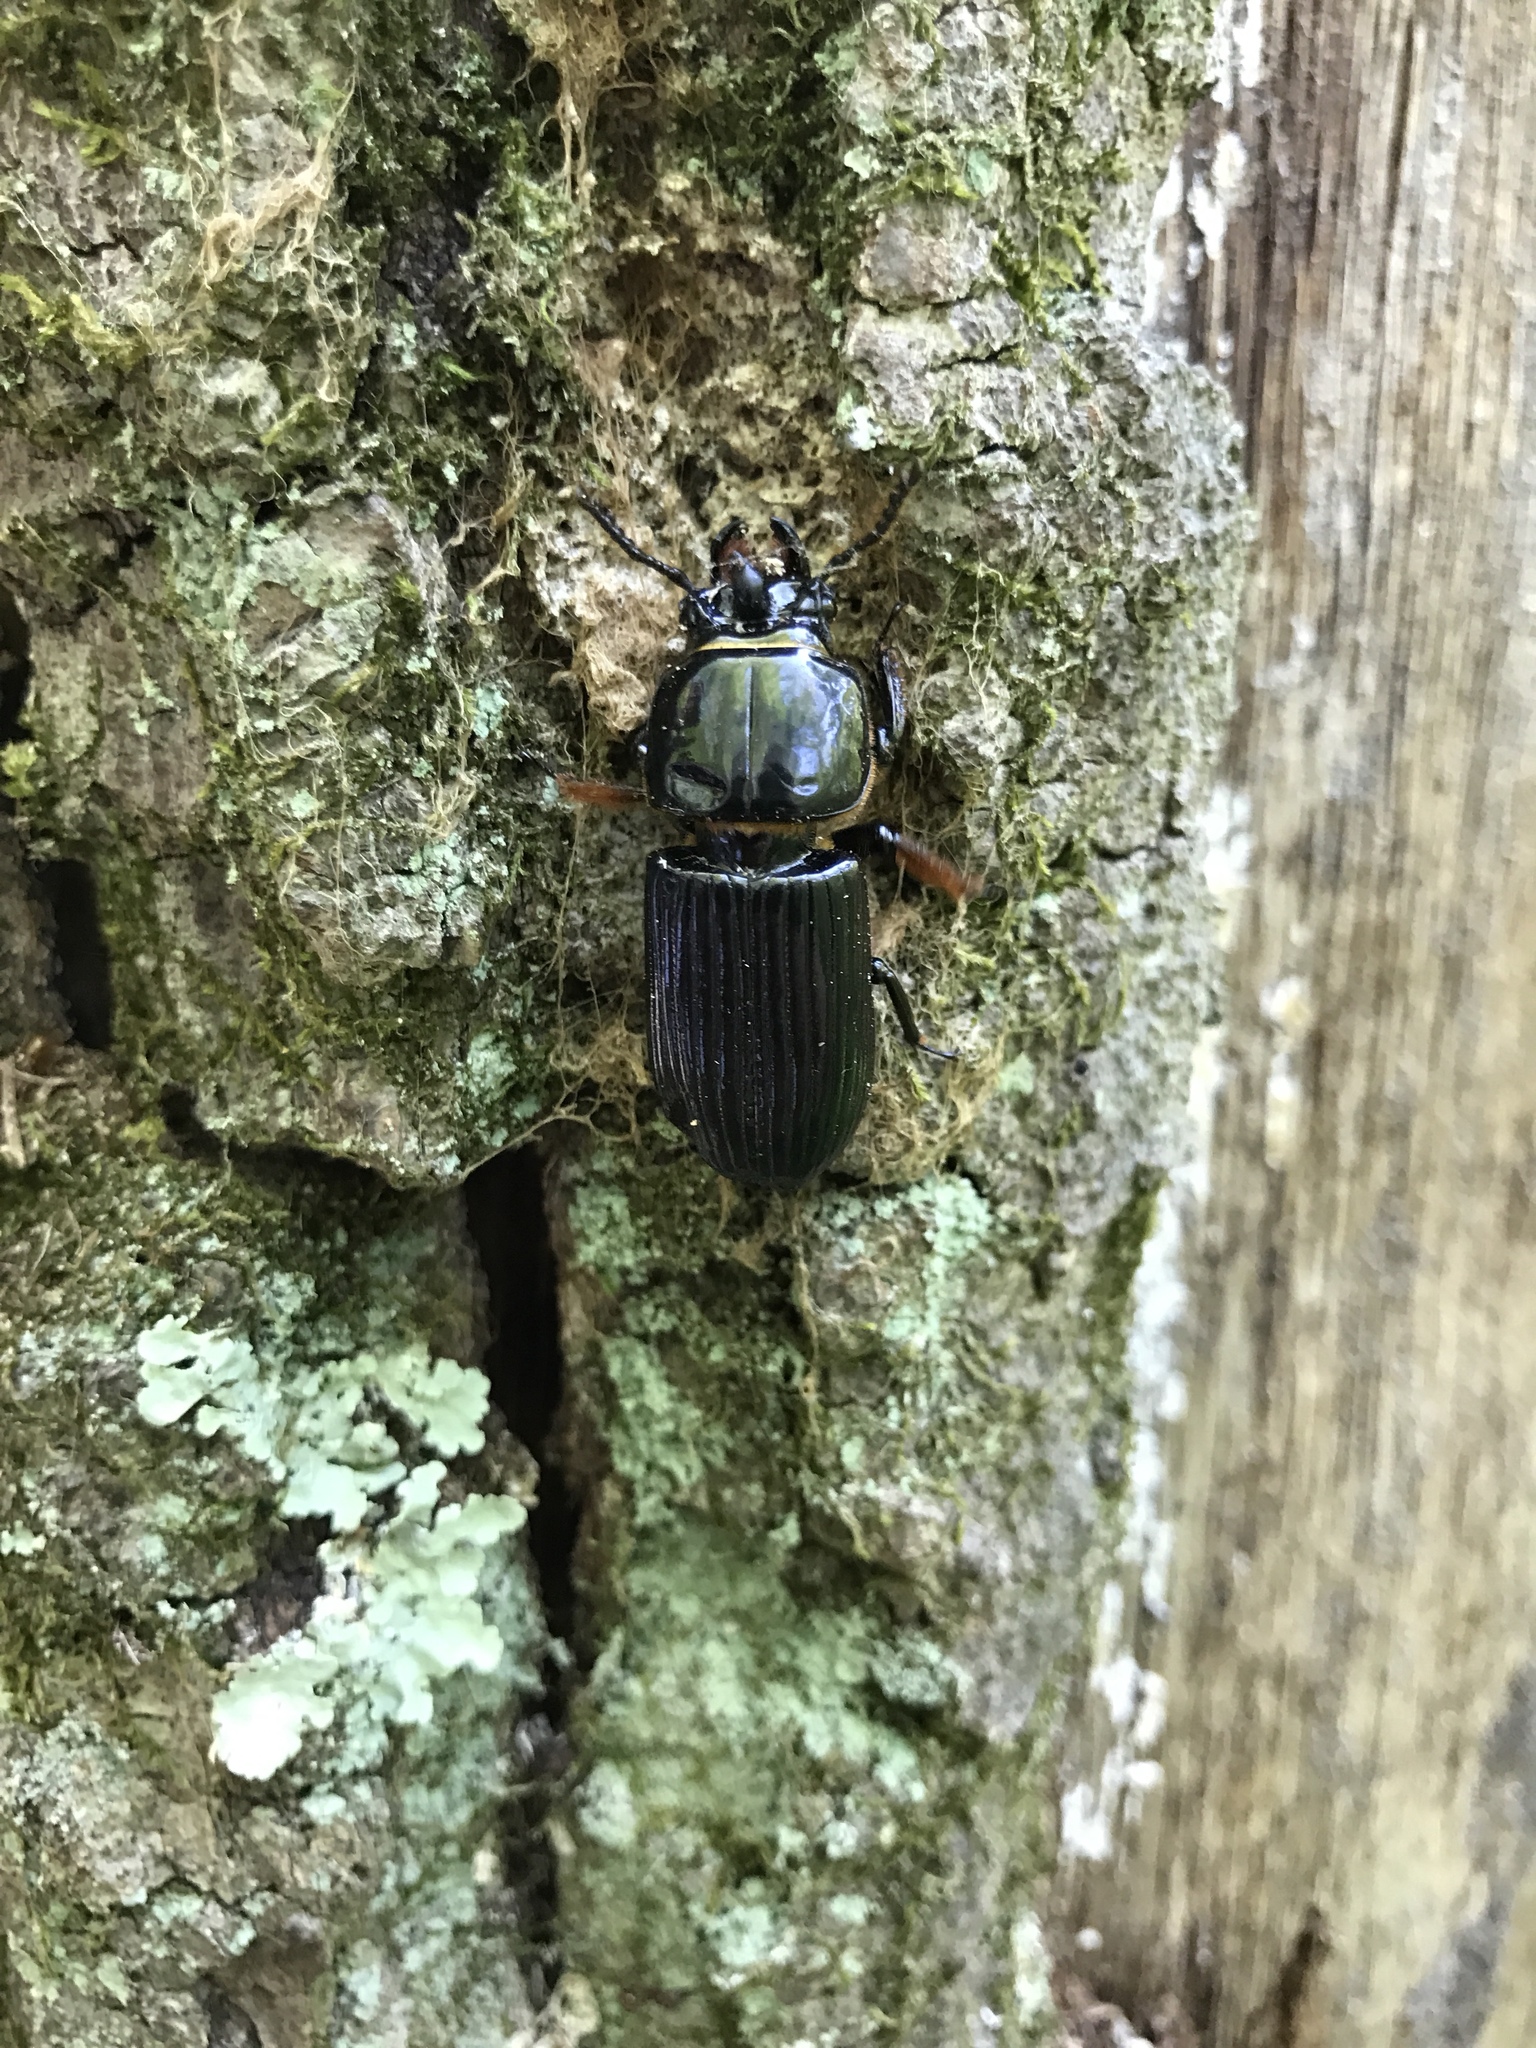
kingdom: Animalia
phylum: Arthropoda
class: Insecta
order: Coleoptera
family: Passalidae
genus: Odontotaenius
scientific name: Odontotaenius disjunctus
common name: Patent leather beetle
